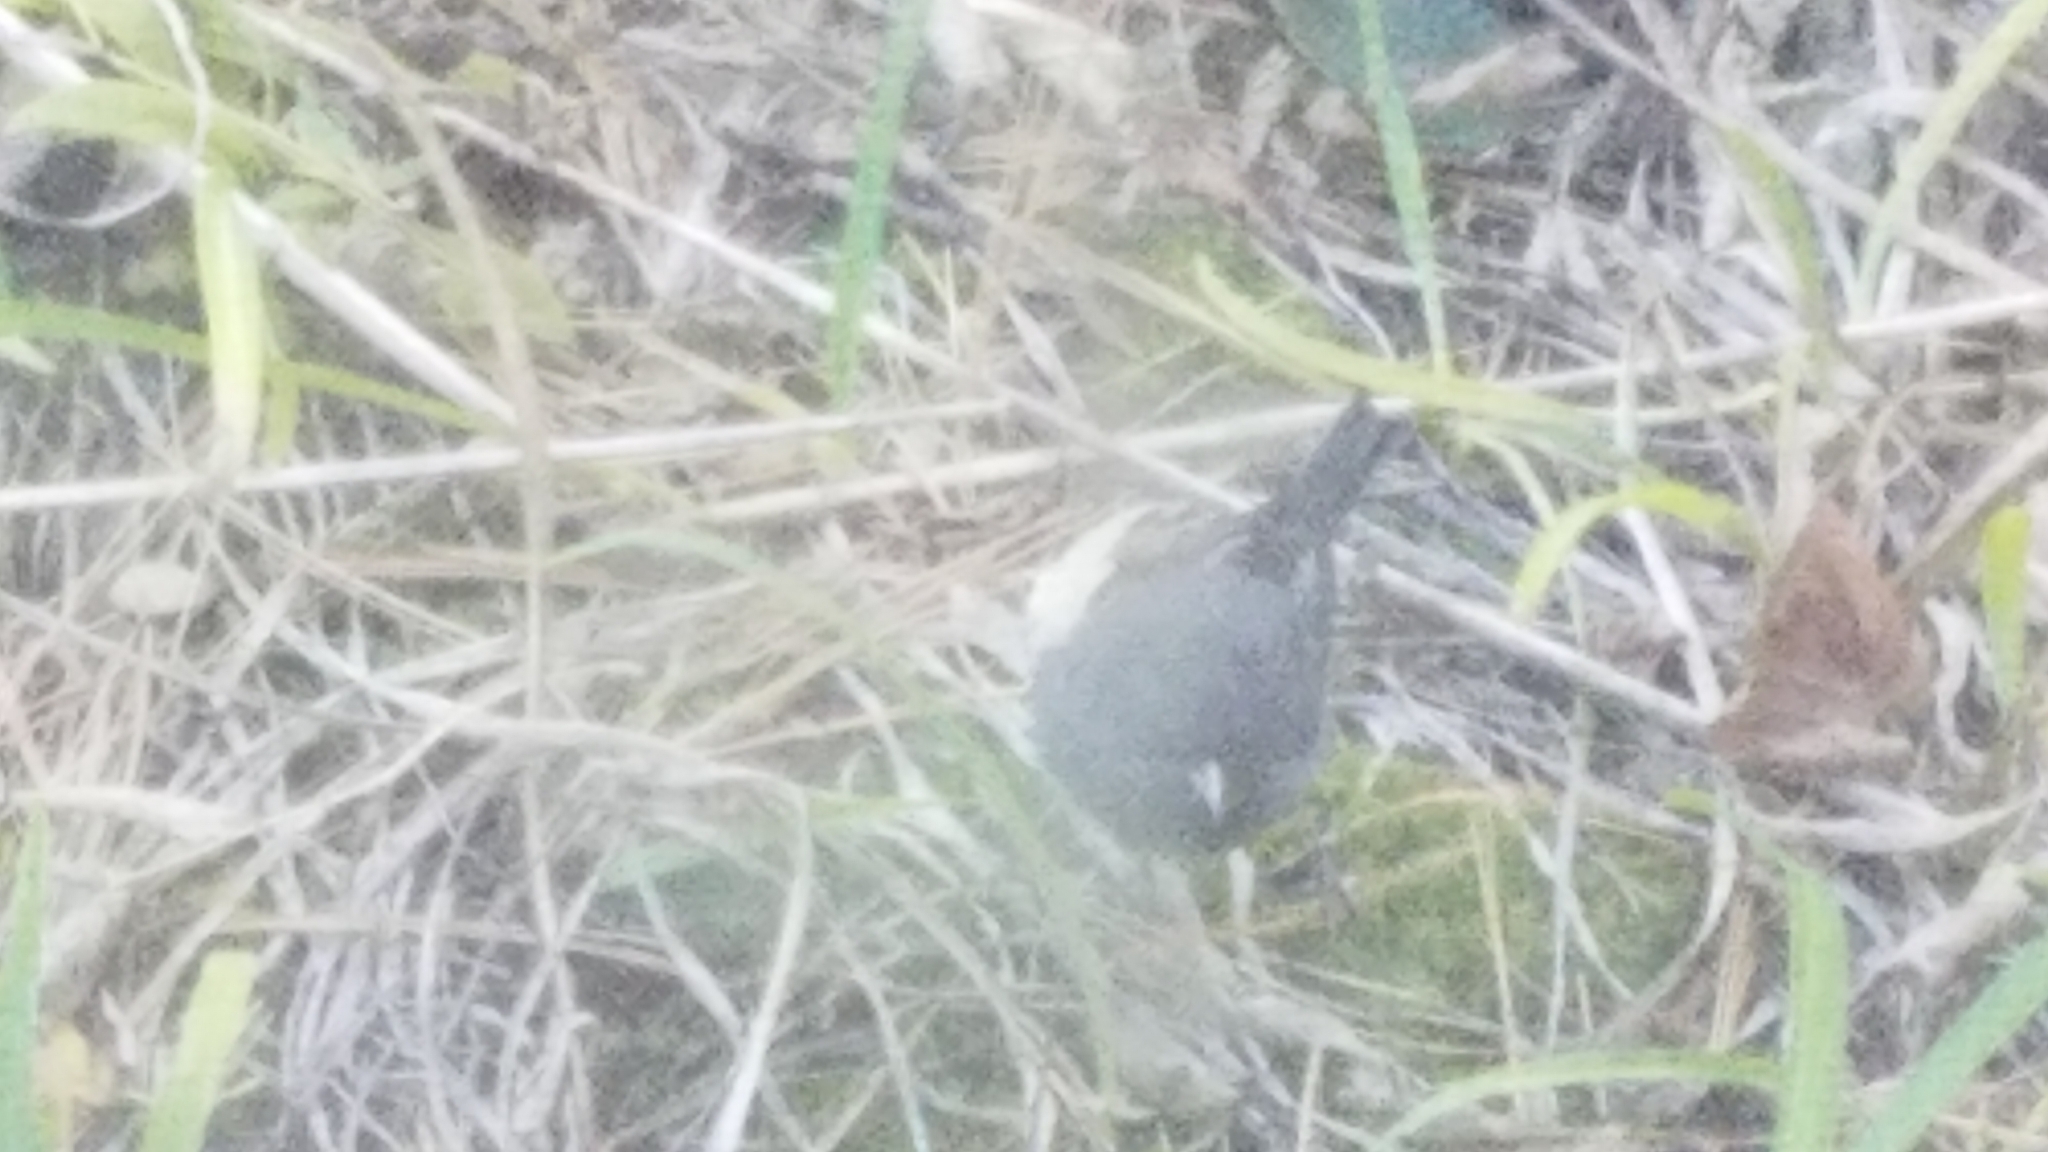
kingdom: Animalia
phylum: Chordata
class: Aves
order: Passeriformes
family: Passerellidae
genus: Junco
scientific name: Junco hyemalis
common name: Dark-eyed junco
